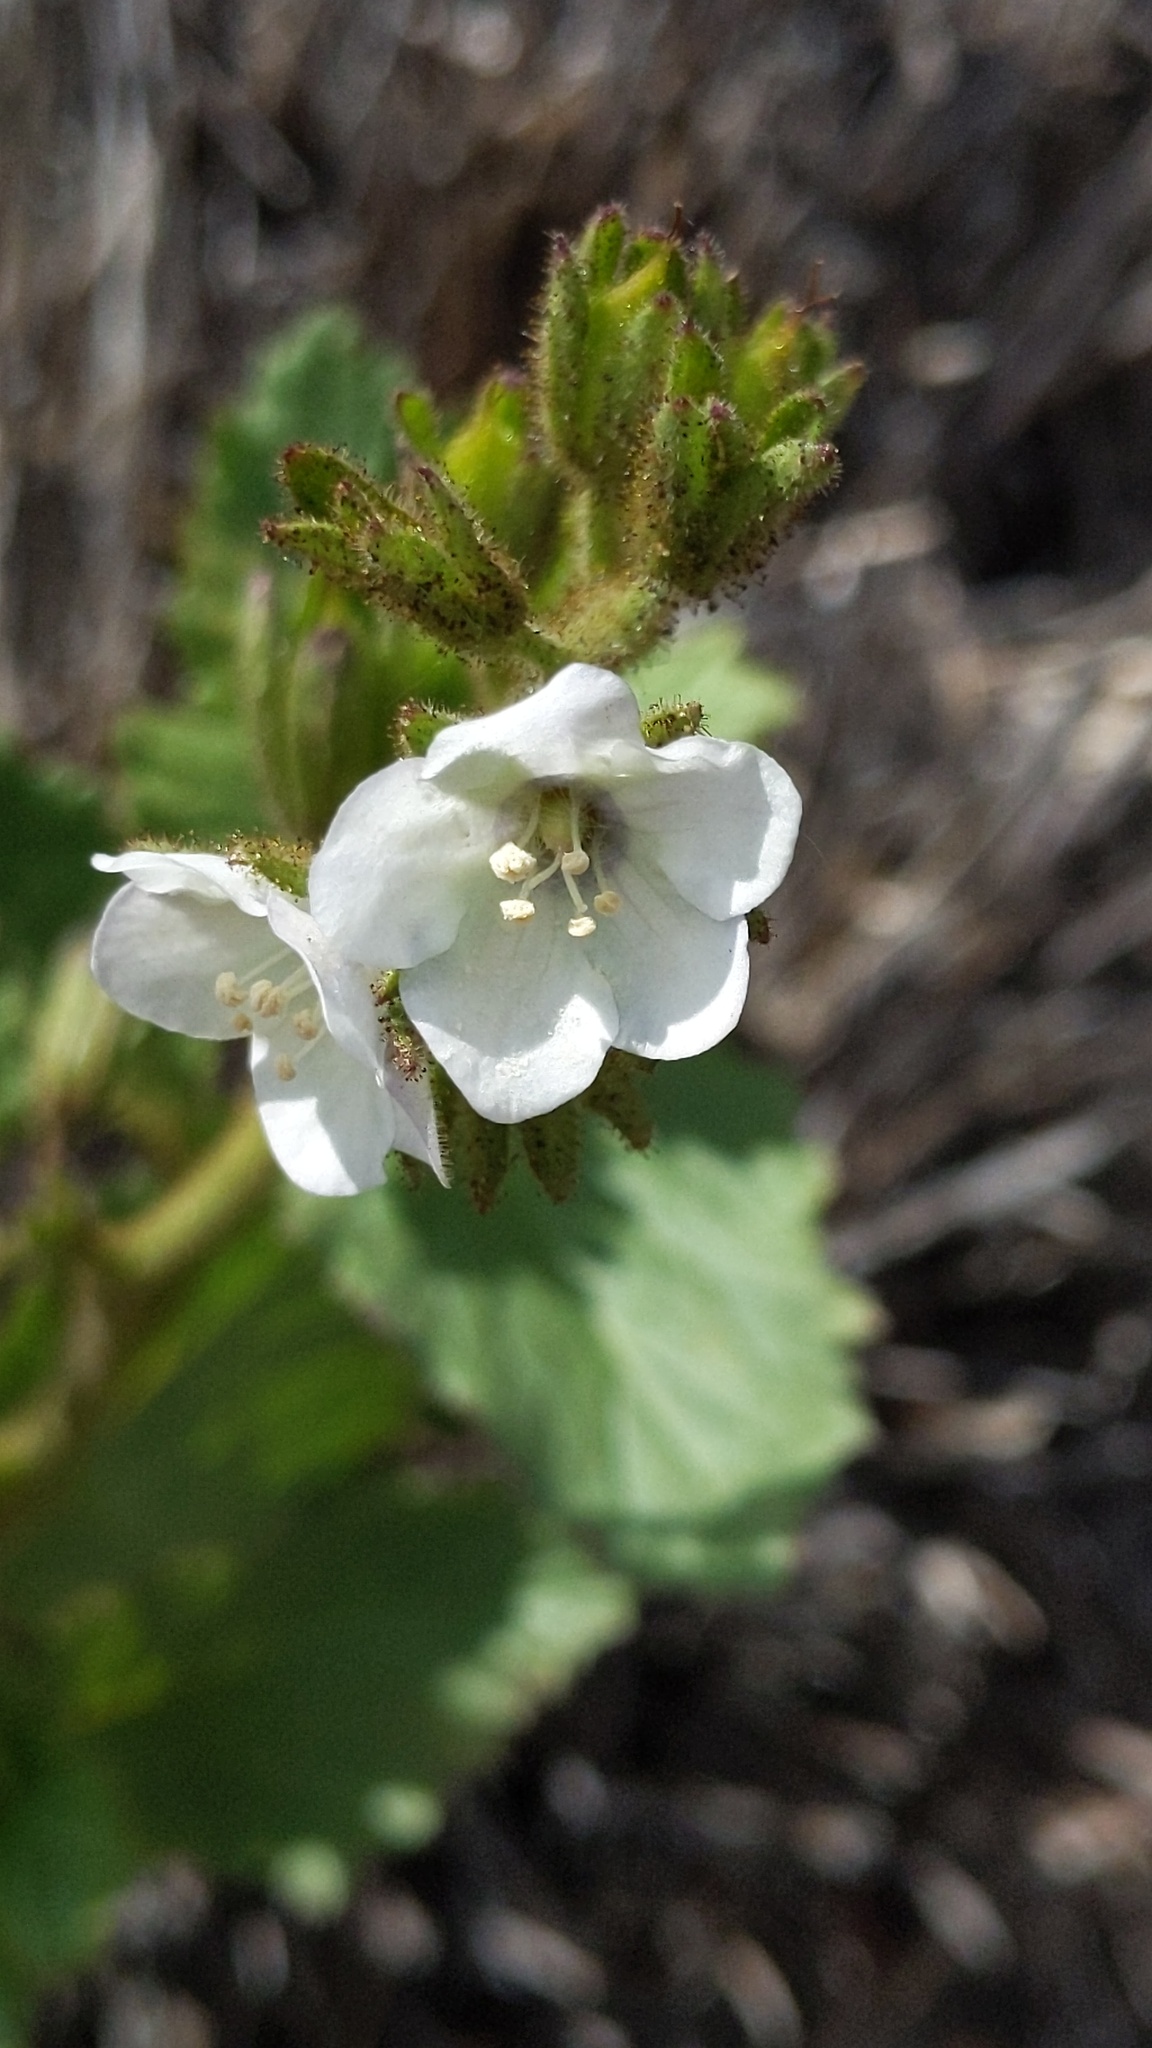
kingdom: Plantae
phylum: Tracheophyta
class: Magnoliopsida
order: Boraginales
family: Hydrophyllaceae
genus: Phacelia
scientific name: Phacelia viscida
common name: Sticky phacelia
